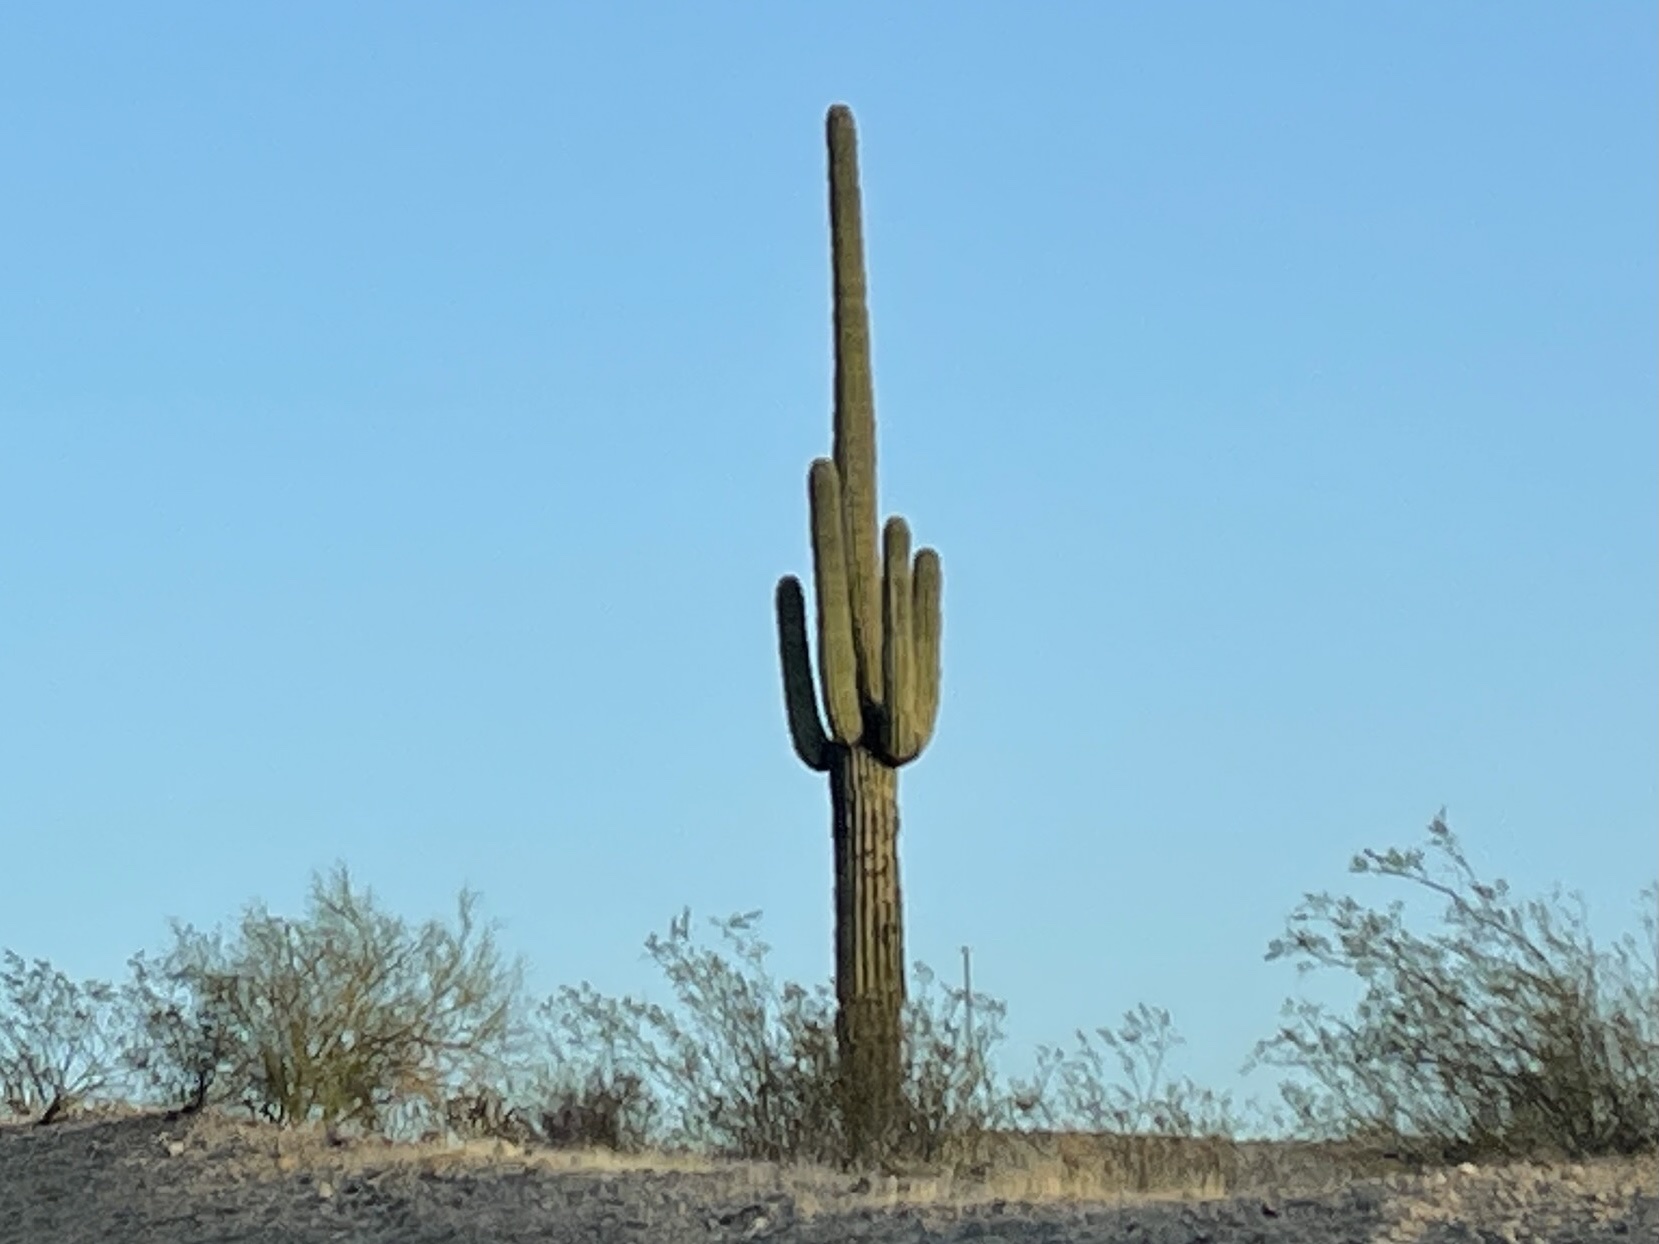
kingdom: Plantae
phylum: Tracheophyta
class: Magnoliopsida
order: Caryophyllales
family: Cactaceae
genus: Carnegiea
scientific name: Carnegiea gigantea
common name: Saguaro
